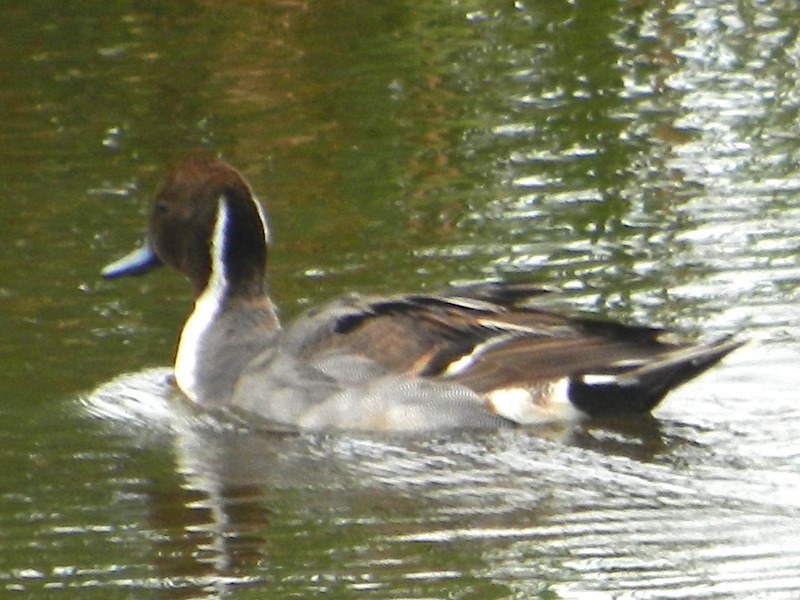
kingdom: Animalia
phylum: Chordata
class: Aves
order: Anseriformes
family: Anatidae
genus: Anas
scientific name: Anas acuta
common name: Northern pintail
